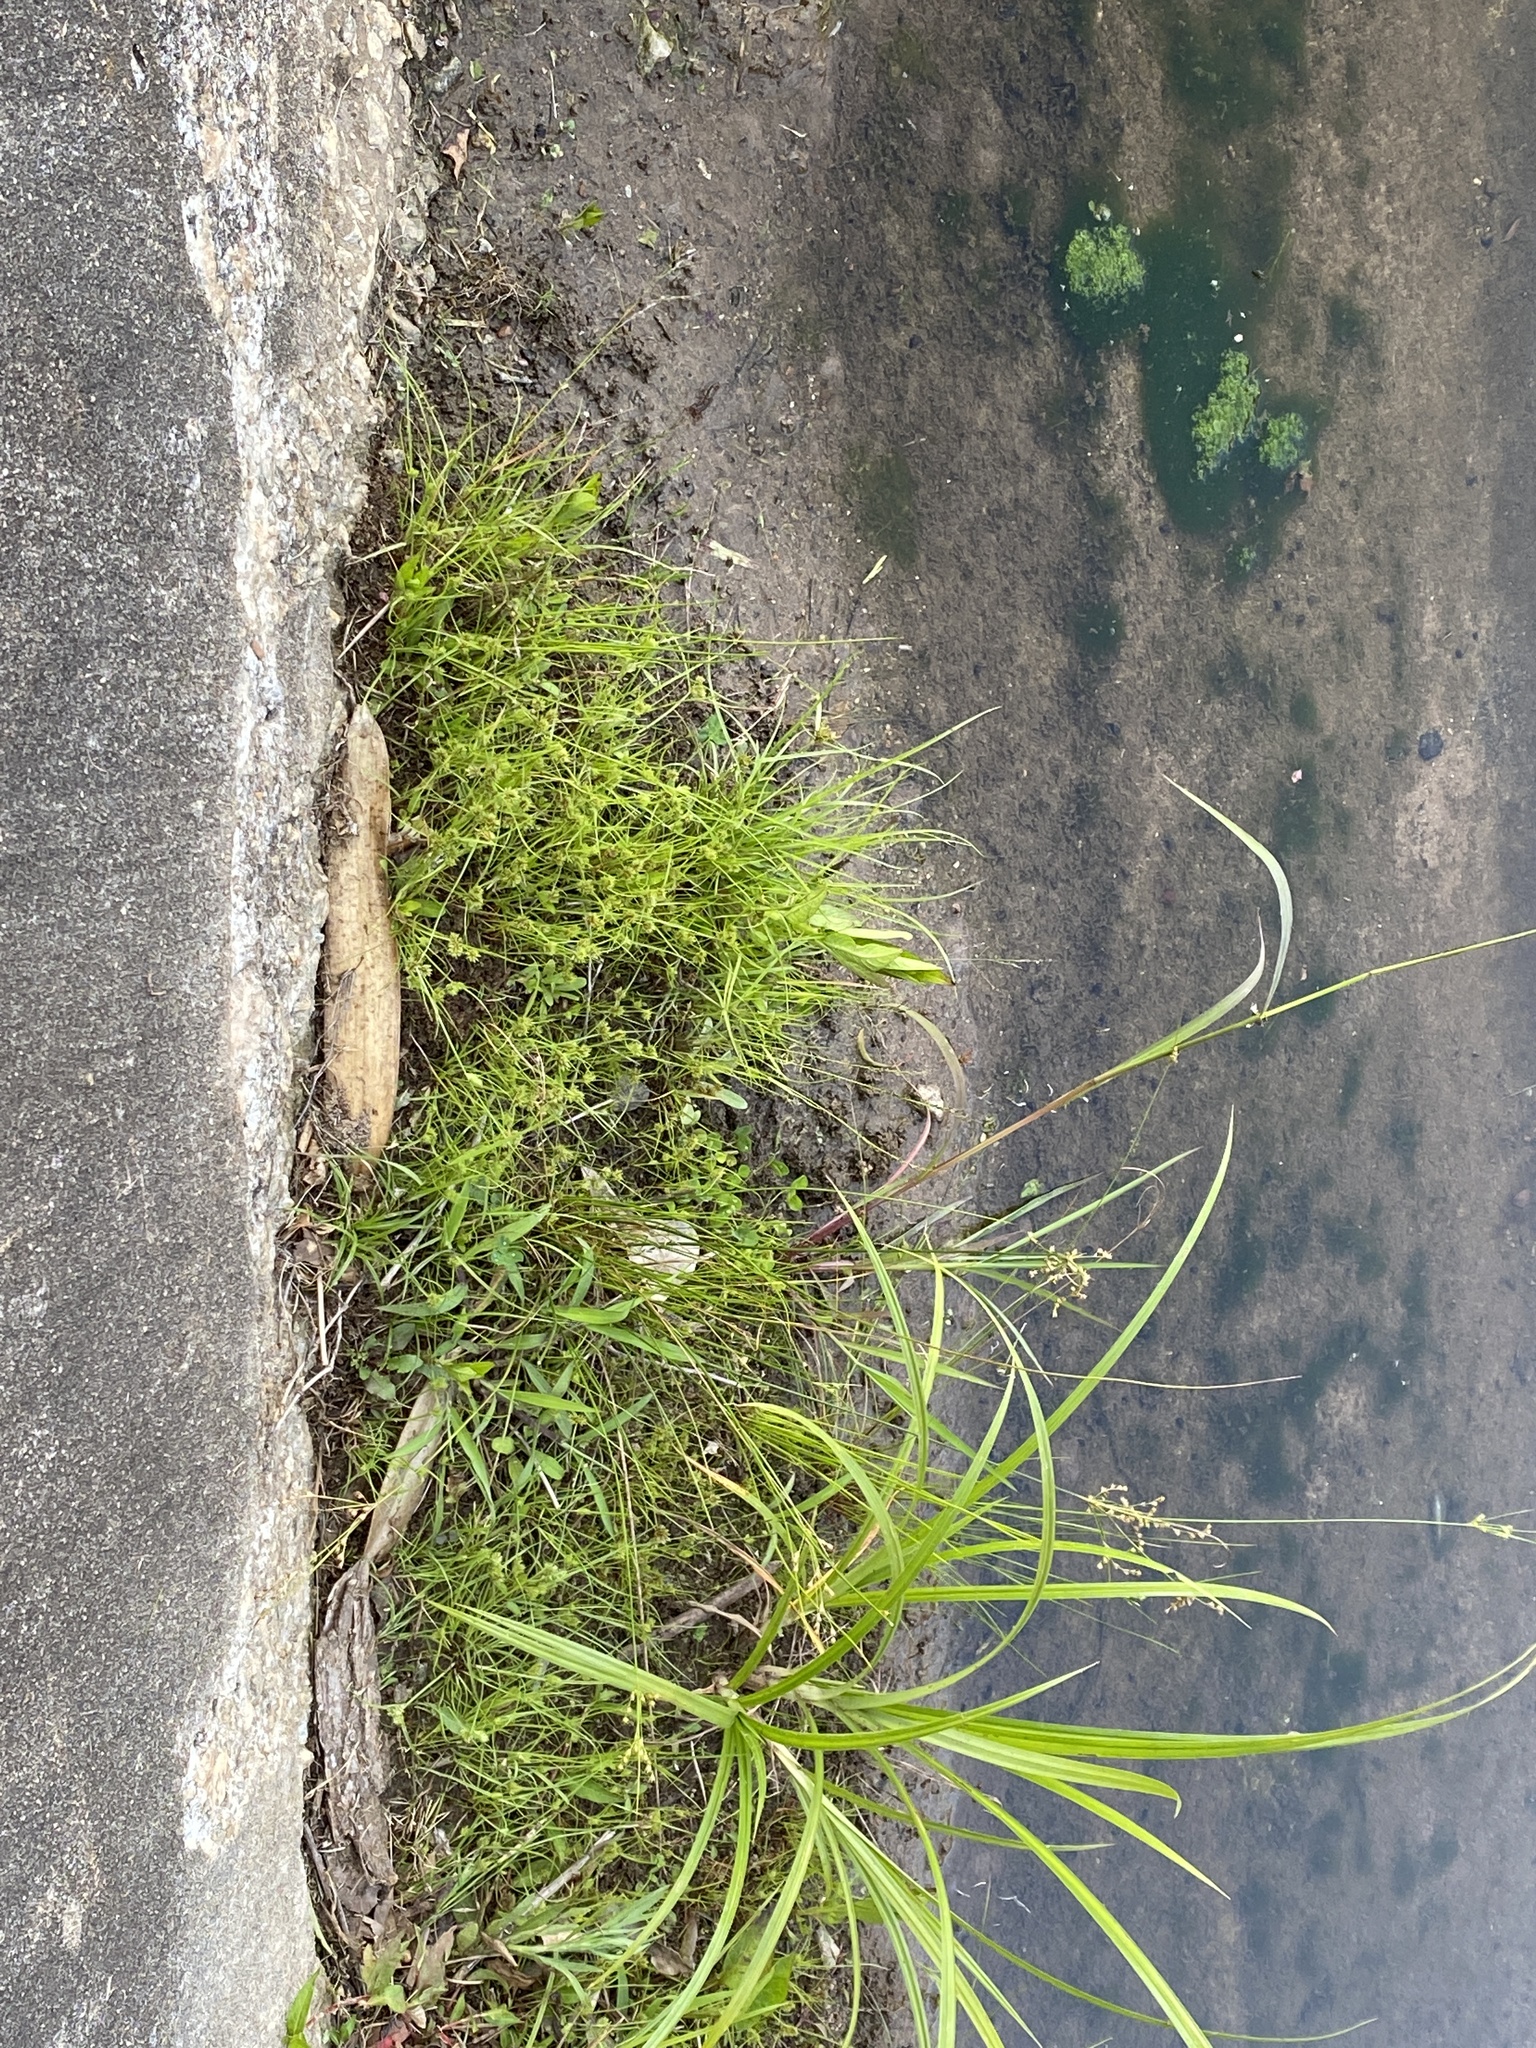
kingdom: Plantae
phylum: Tracheophyta
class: Liliopsida
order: Poales
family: Cyperaceae
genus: Cyperus
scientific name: Cyperus squarrosus
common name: Awned cyperus
